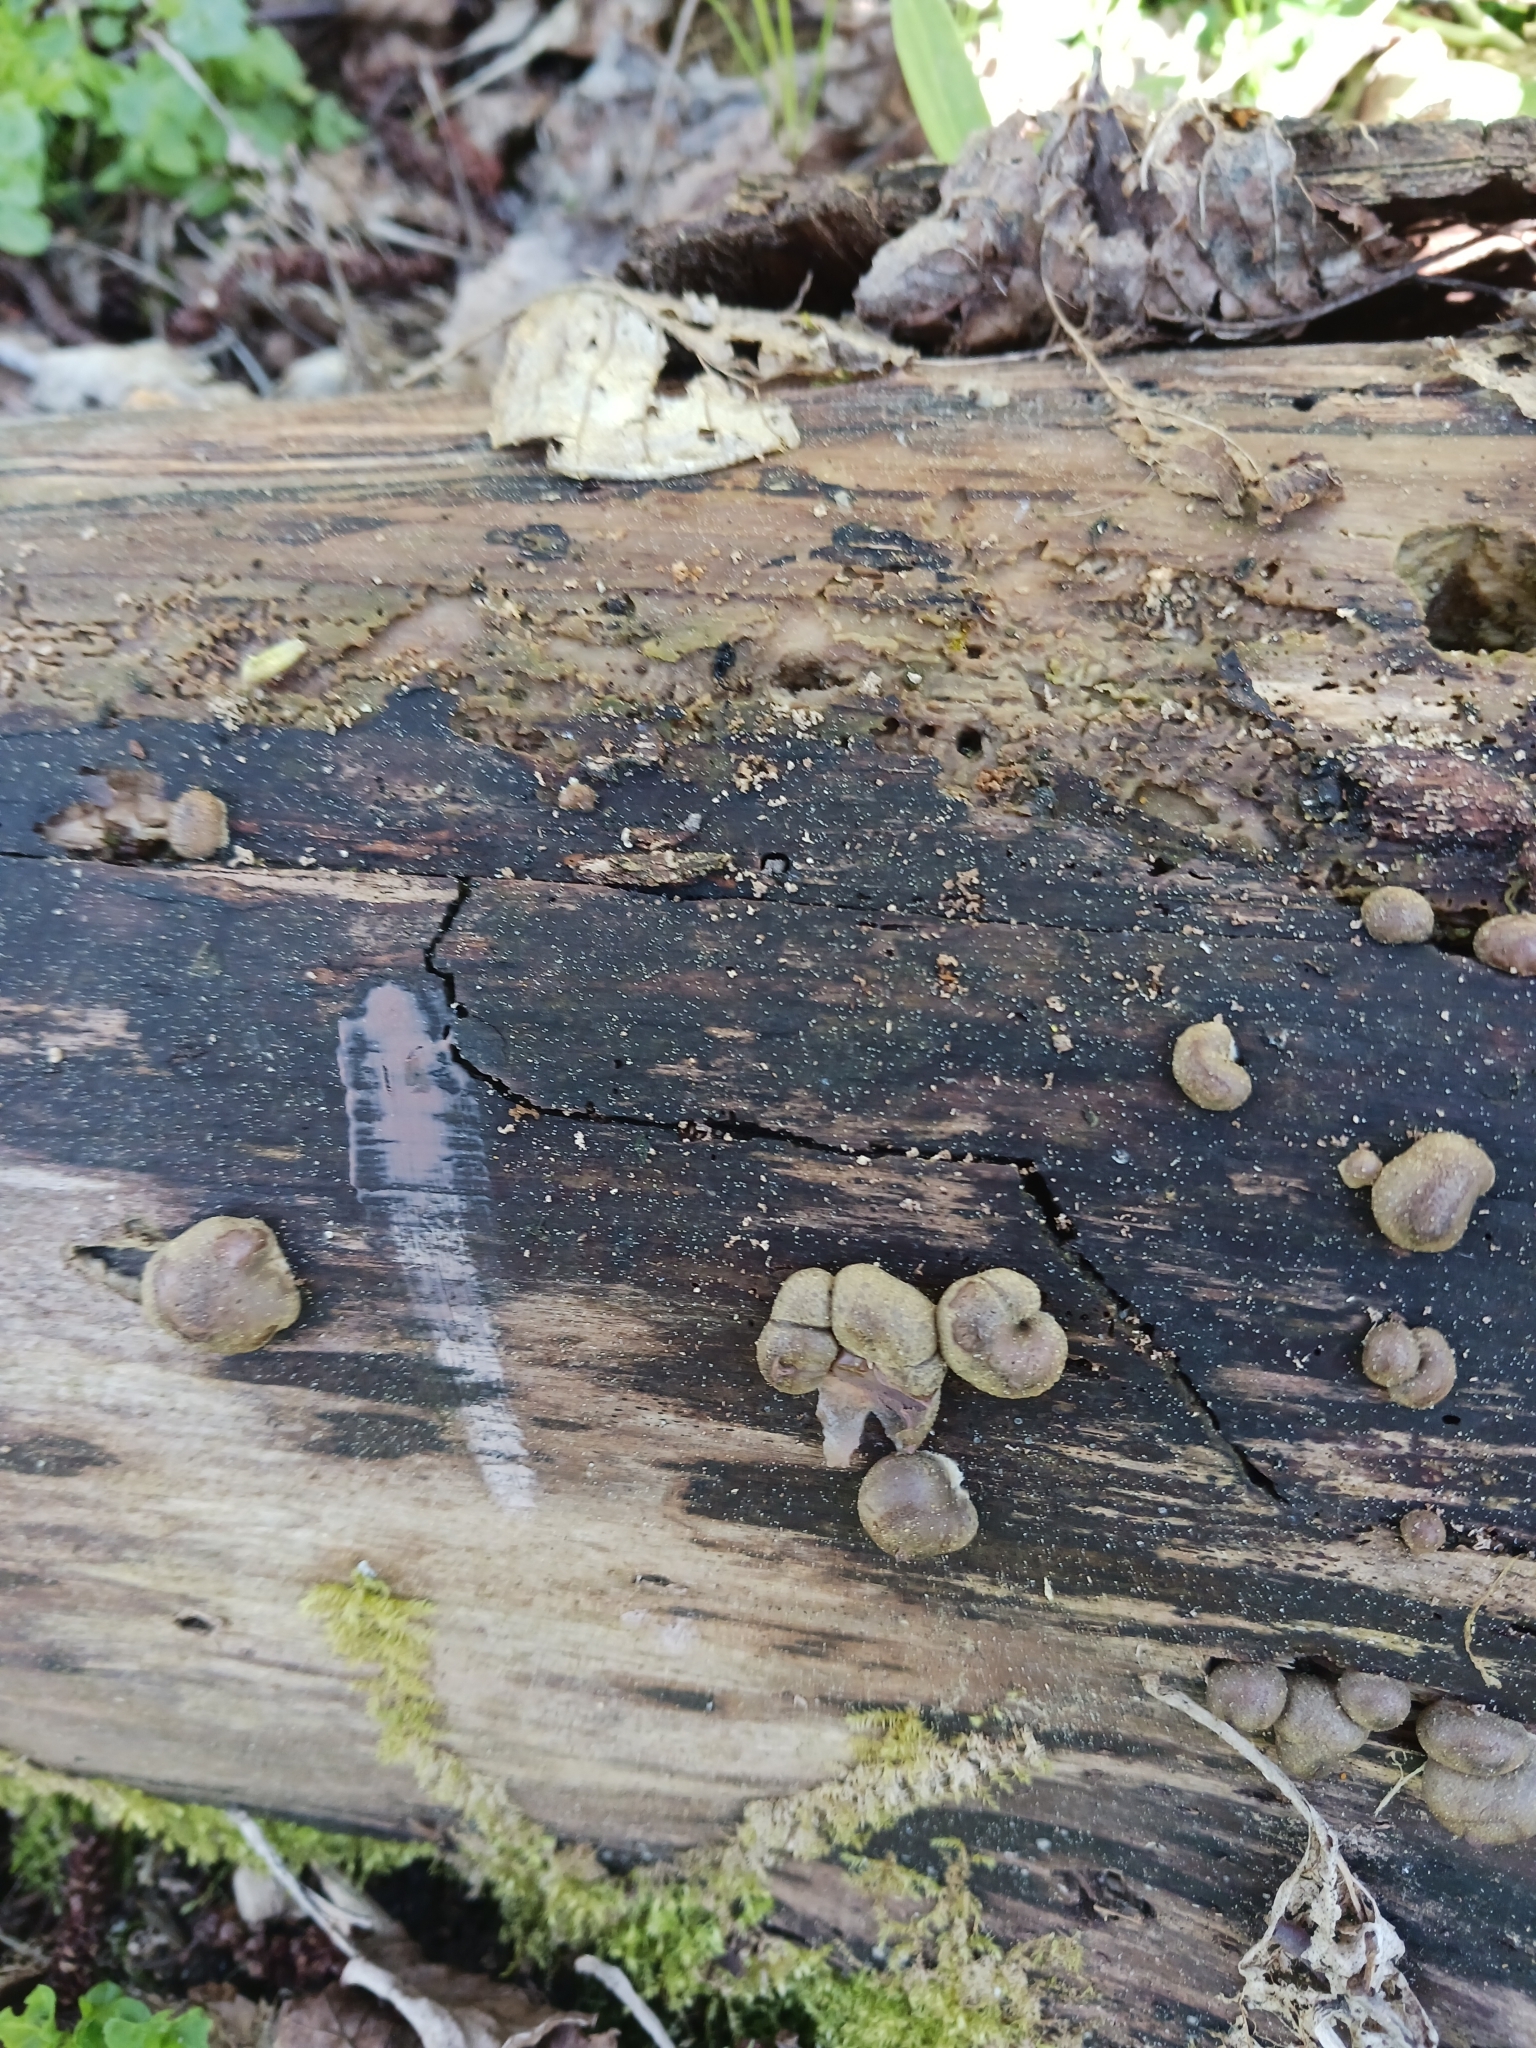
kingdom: Protozoa
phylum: Mycetozoa
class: Myxomycetes
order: Cribrariales
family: Tubiferaceae
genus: Lycogala
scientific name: Lycogala
